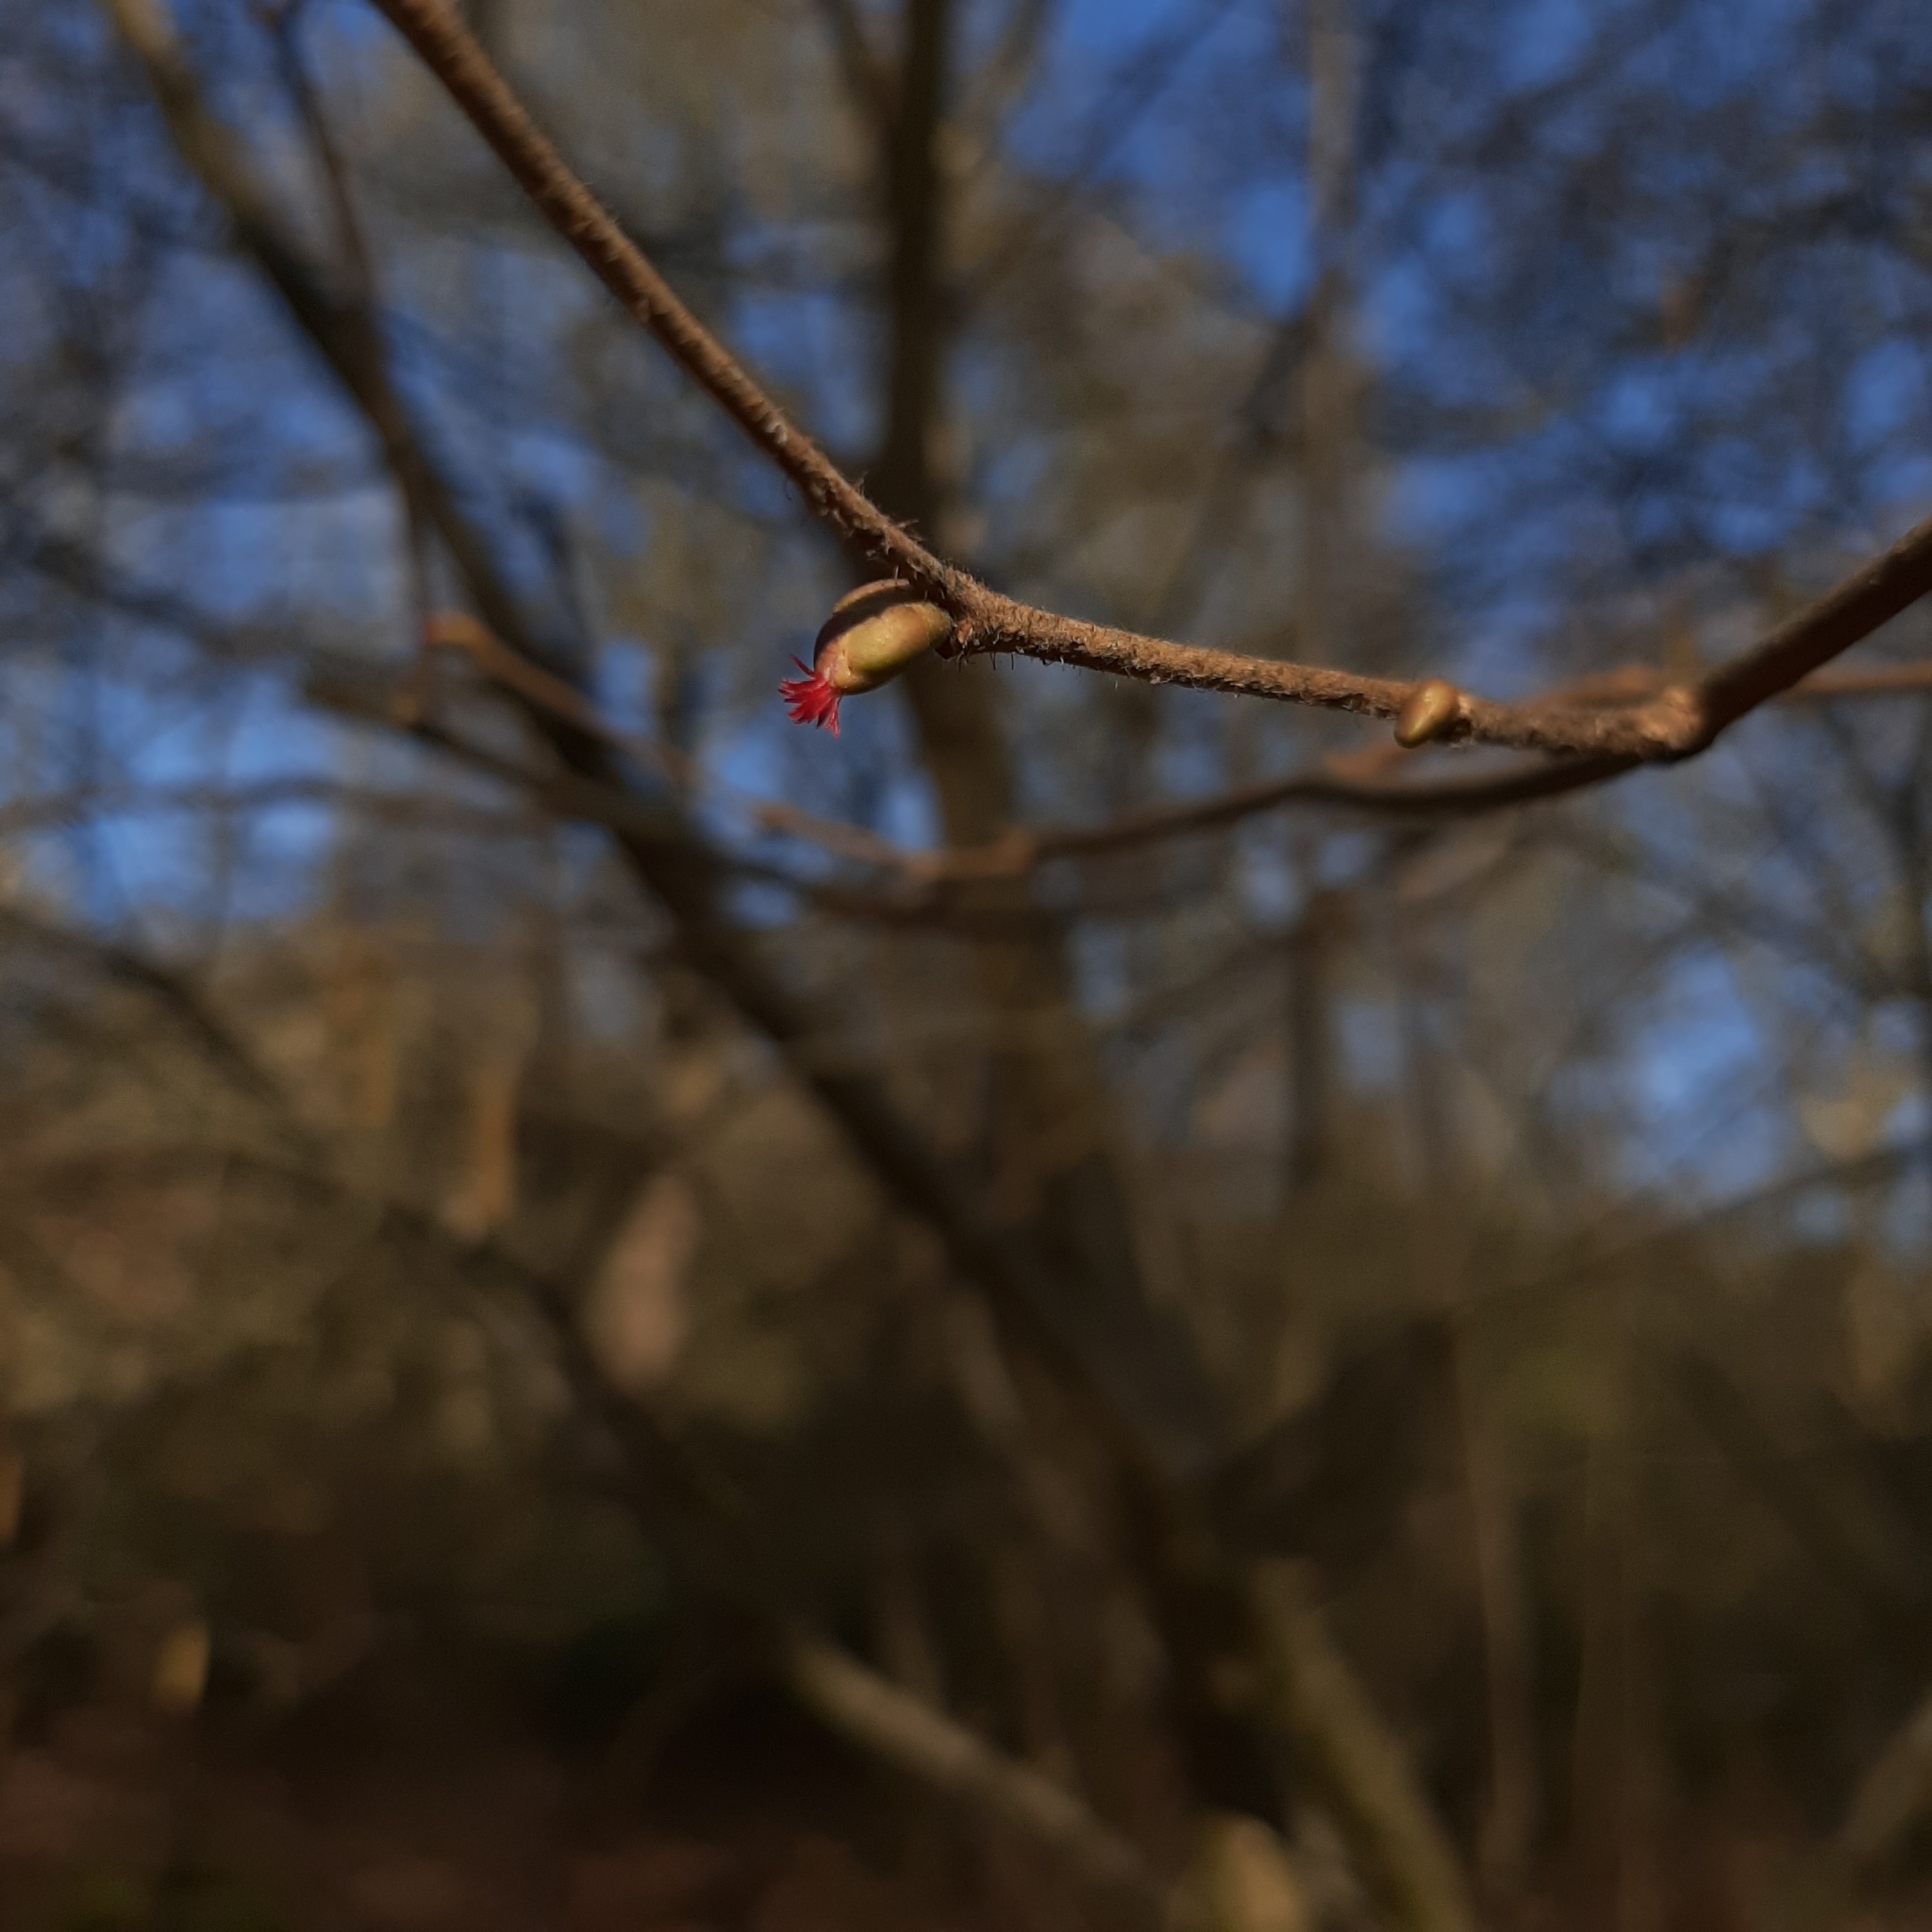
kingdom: Plantae
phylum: Tracheophyta
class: Magnoliopsida
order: Fagales
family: Betulaceae
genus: Corylus
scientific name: Corylus avellana
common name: European hazel
